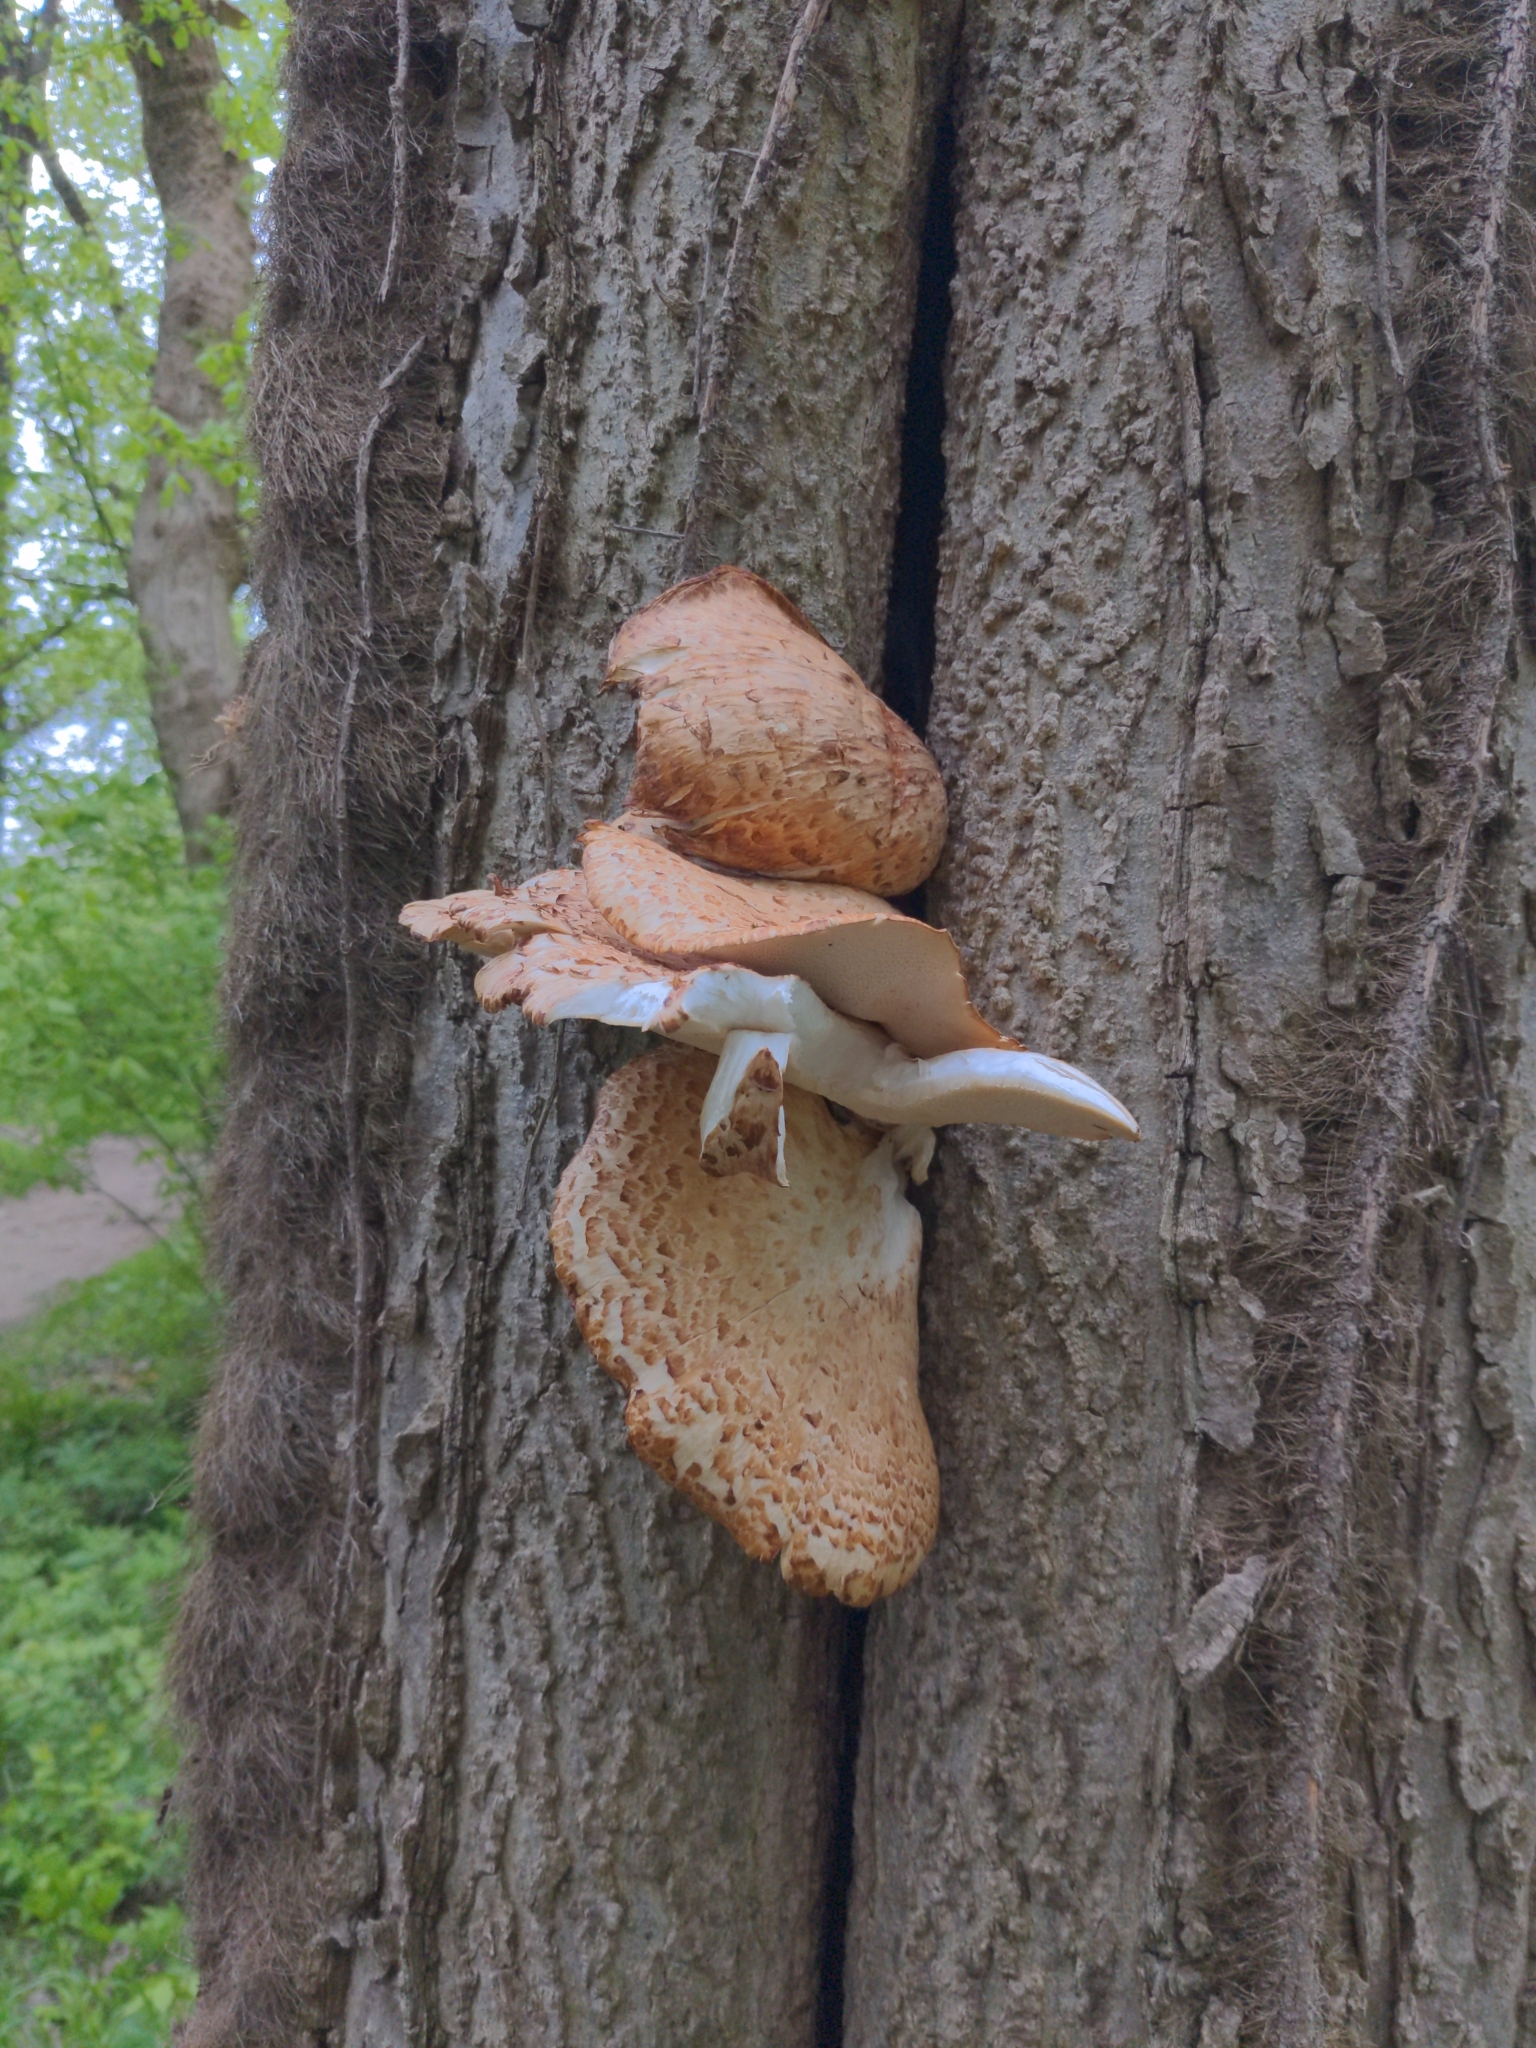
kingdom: Fungi
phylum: Basidiomycota
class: Agaricomycetes
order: Polyporales
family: Polyporaceae
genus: Cerioporus
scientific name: Cerioporus squamosus
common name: Dryad's saddle
